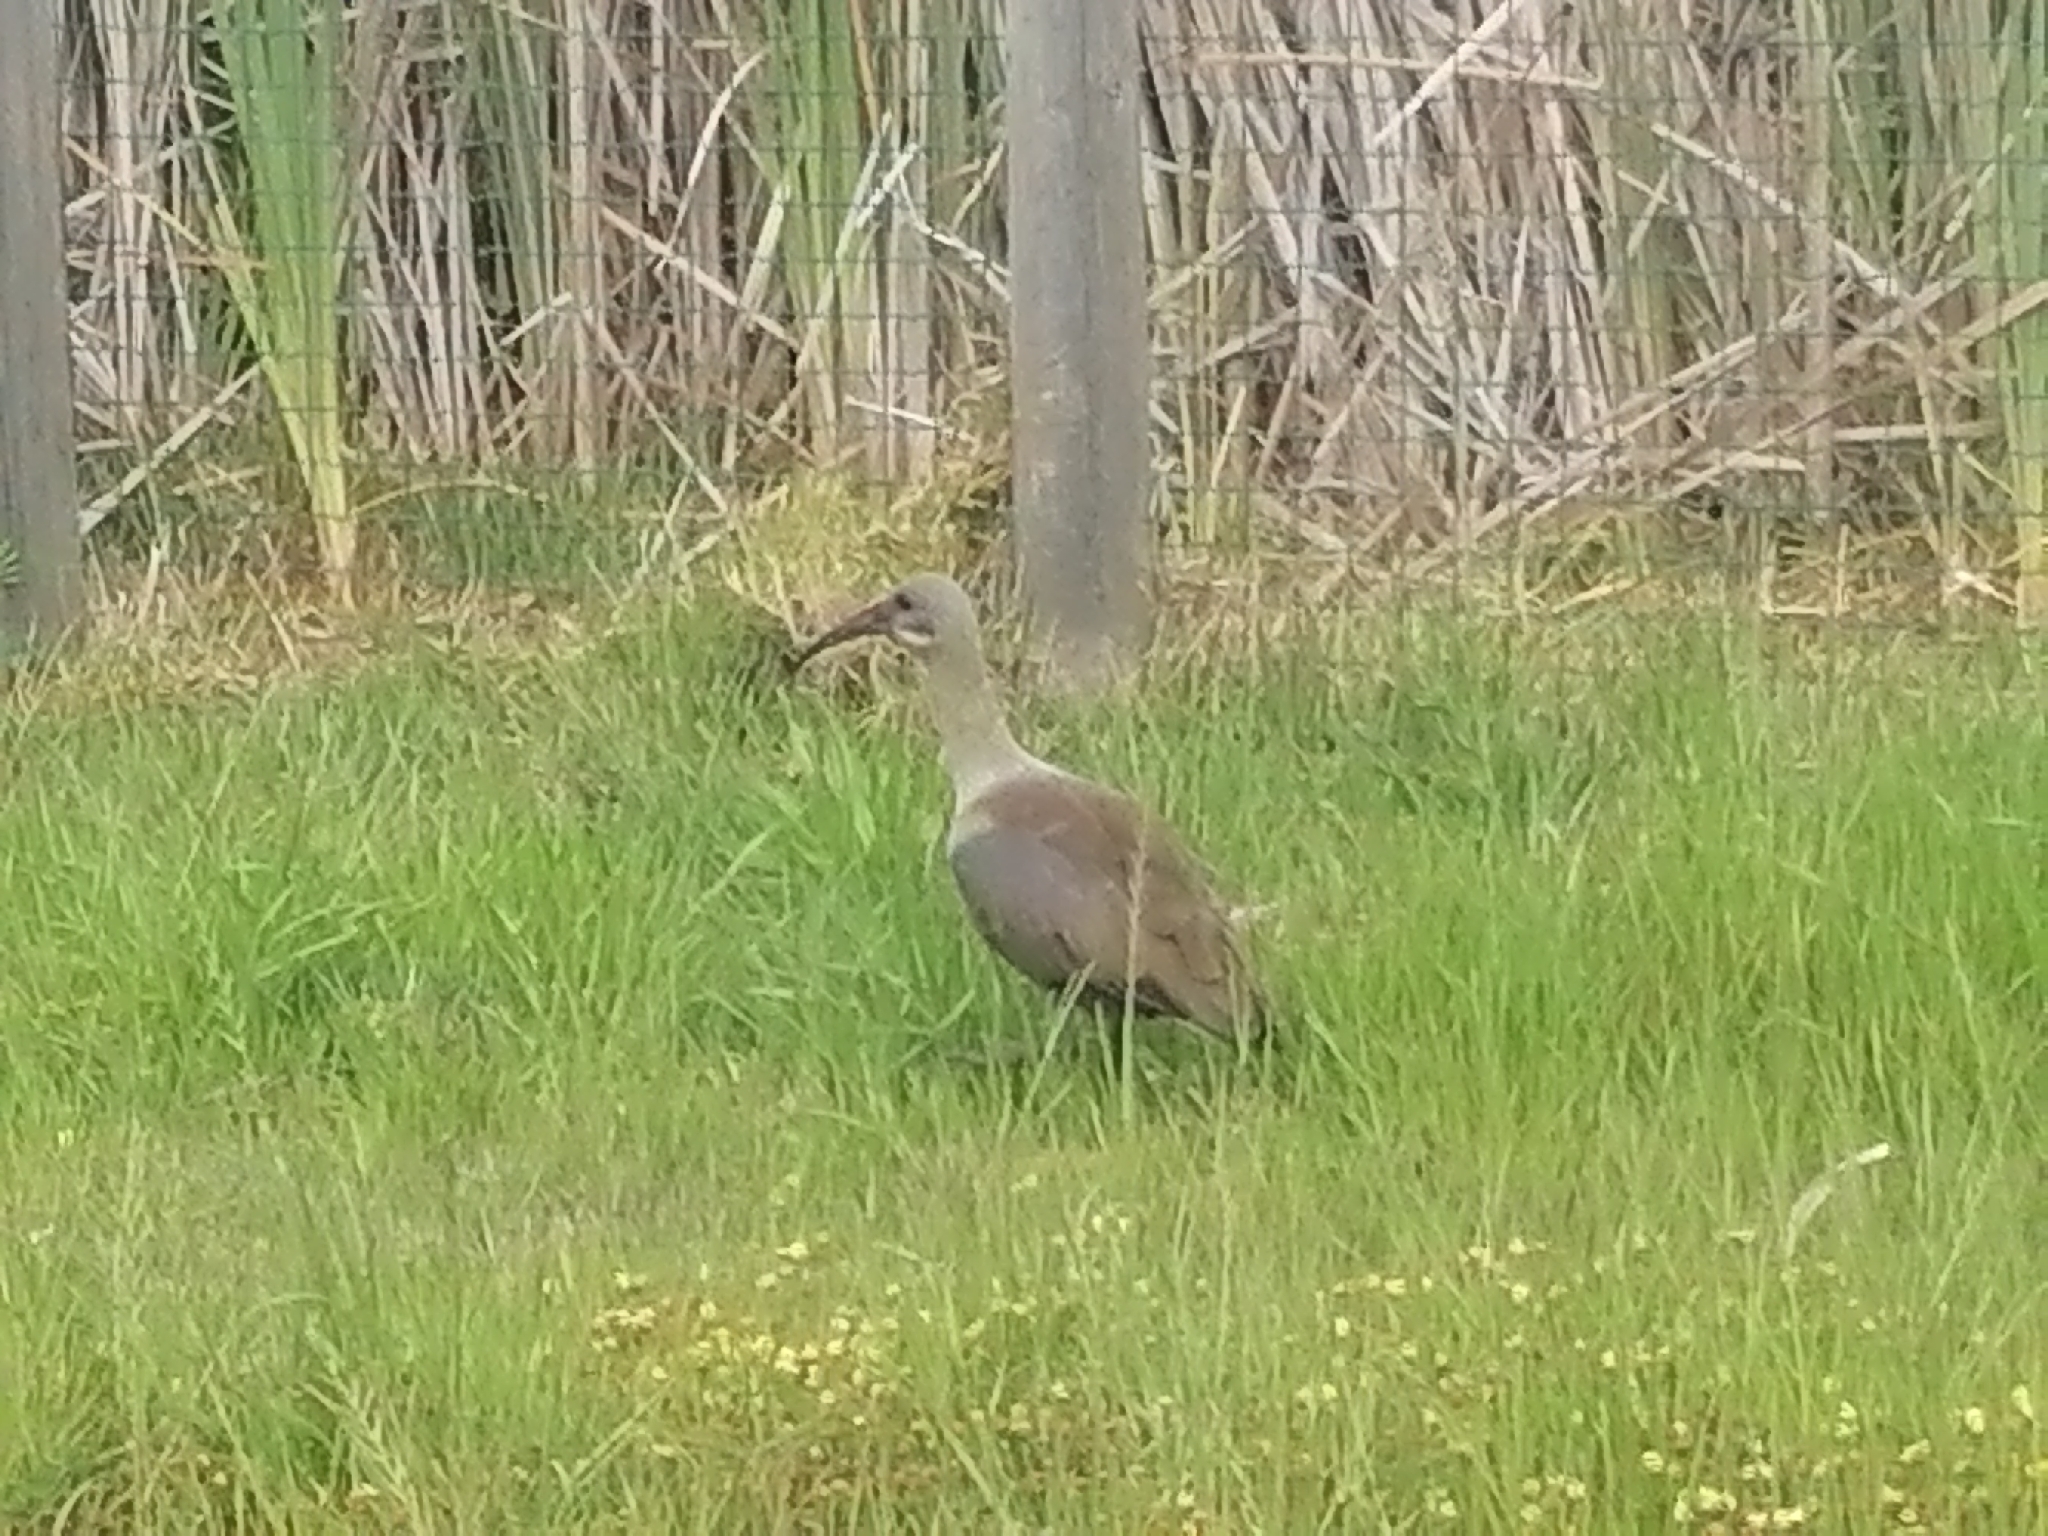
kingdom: Animalia
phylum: Chordata
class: Aves
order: Pelecaniformes
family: Threskiornithidae
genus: Bostrychia
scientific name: Bostrychia hagedash
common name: Hadada ibis
